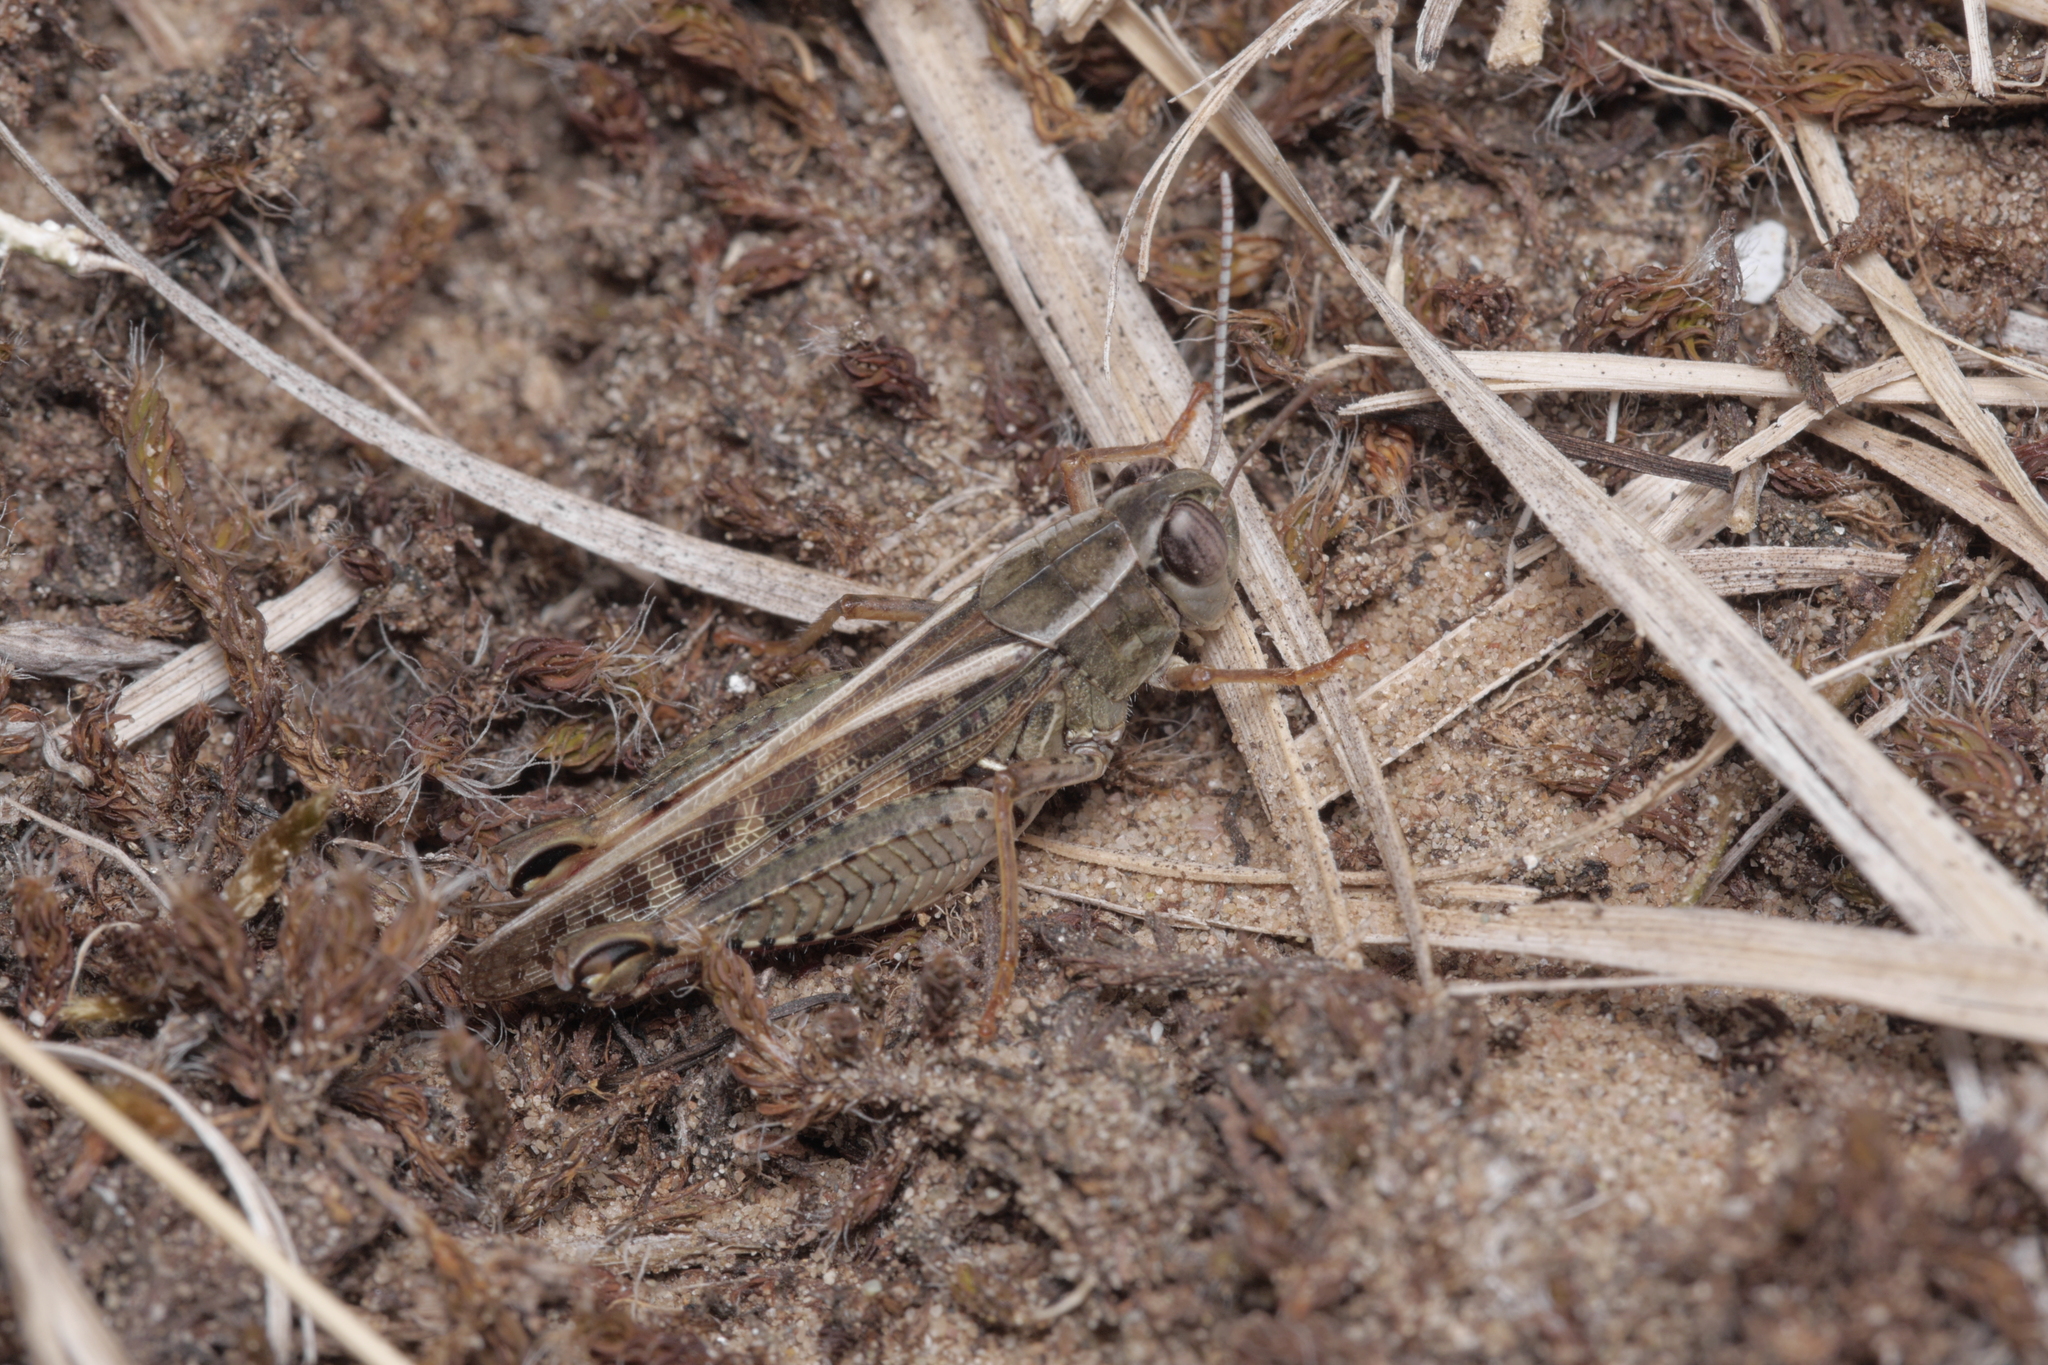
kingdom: Animalia
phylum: Arthropoda
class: Insecta
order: Orthoptera
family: Acrididae
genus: Calliptamus
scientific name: Calliptamus italicus
